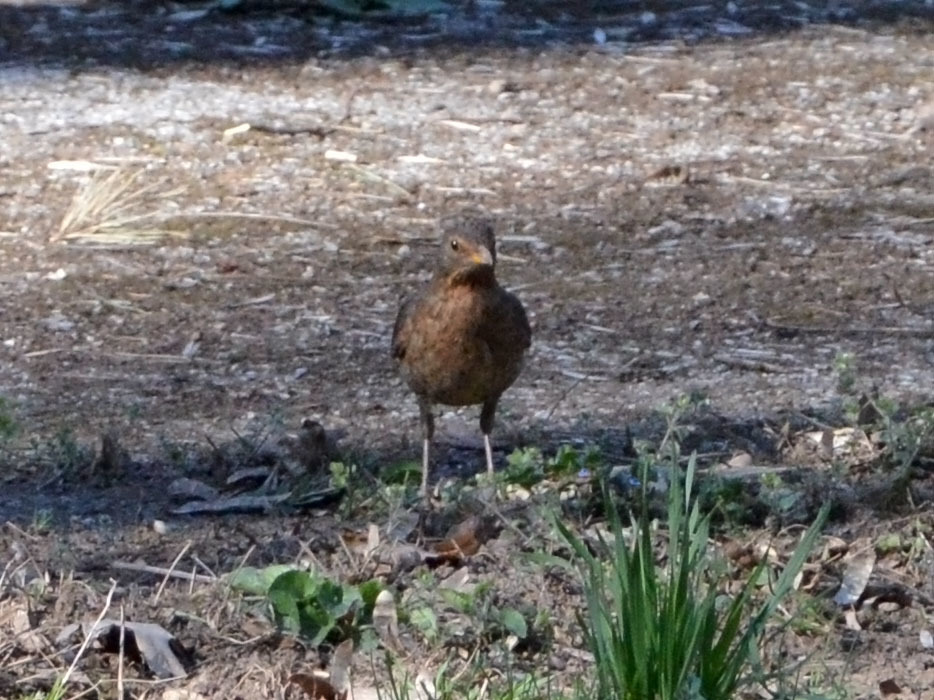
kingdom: Animalia
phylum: Chordata
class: Aves
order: Passeriformes
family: Turdidae
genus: Turdus
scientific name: Turdus merula
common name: Common blackbird
